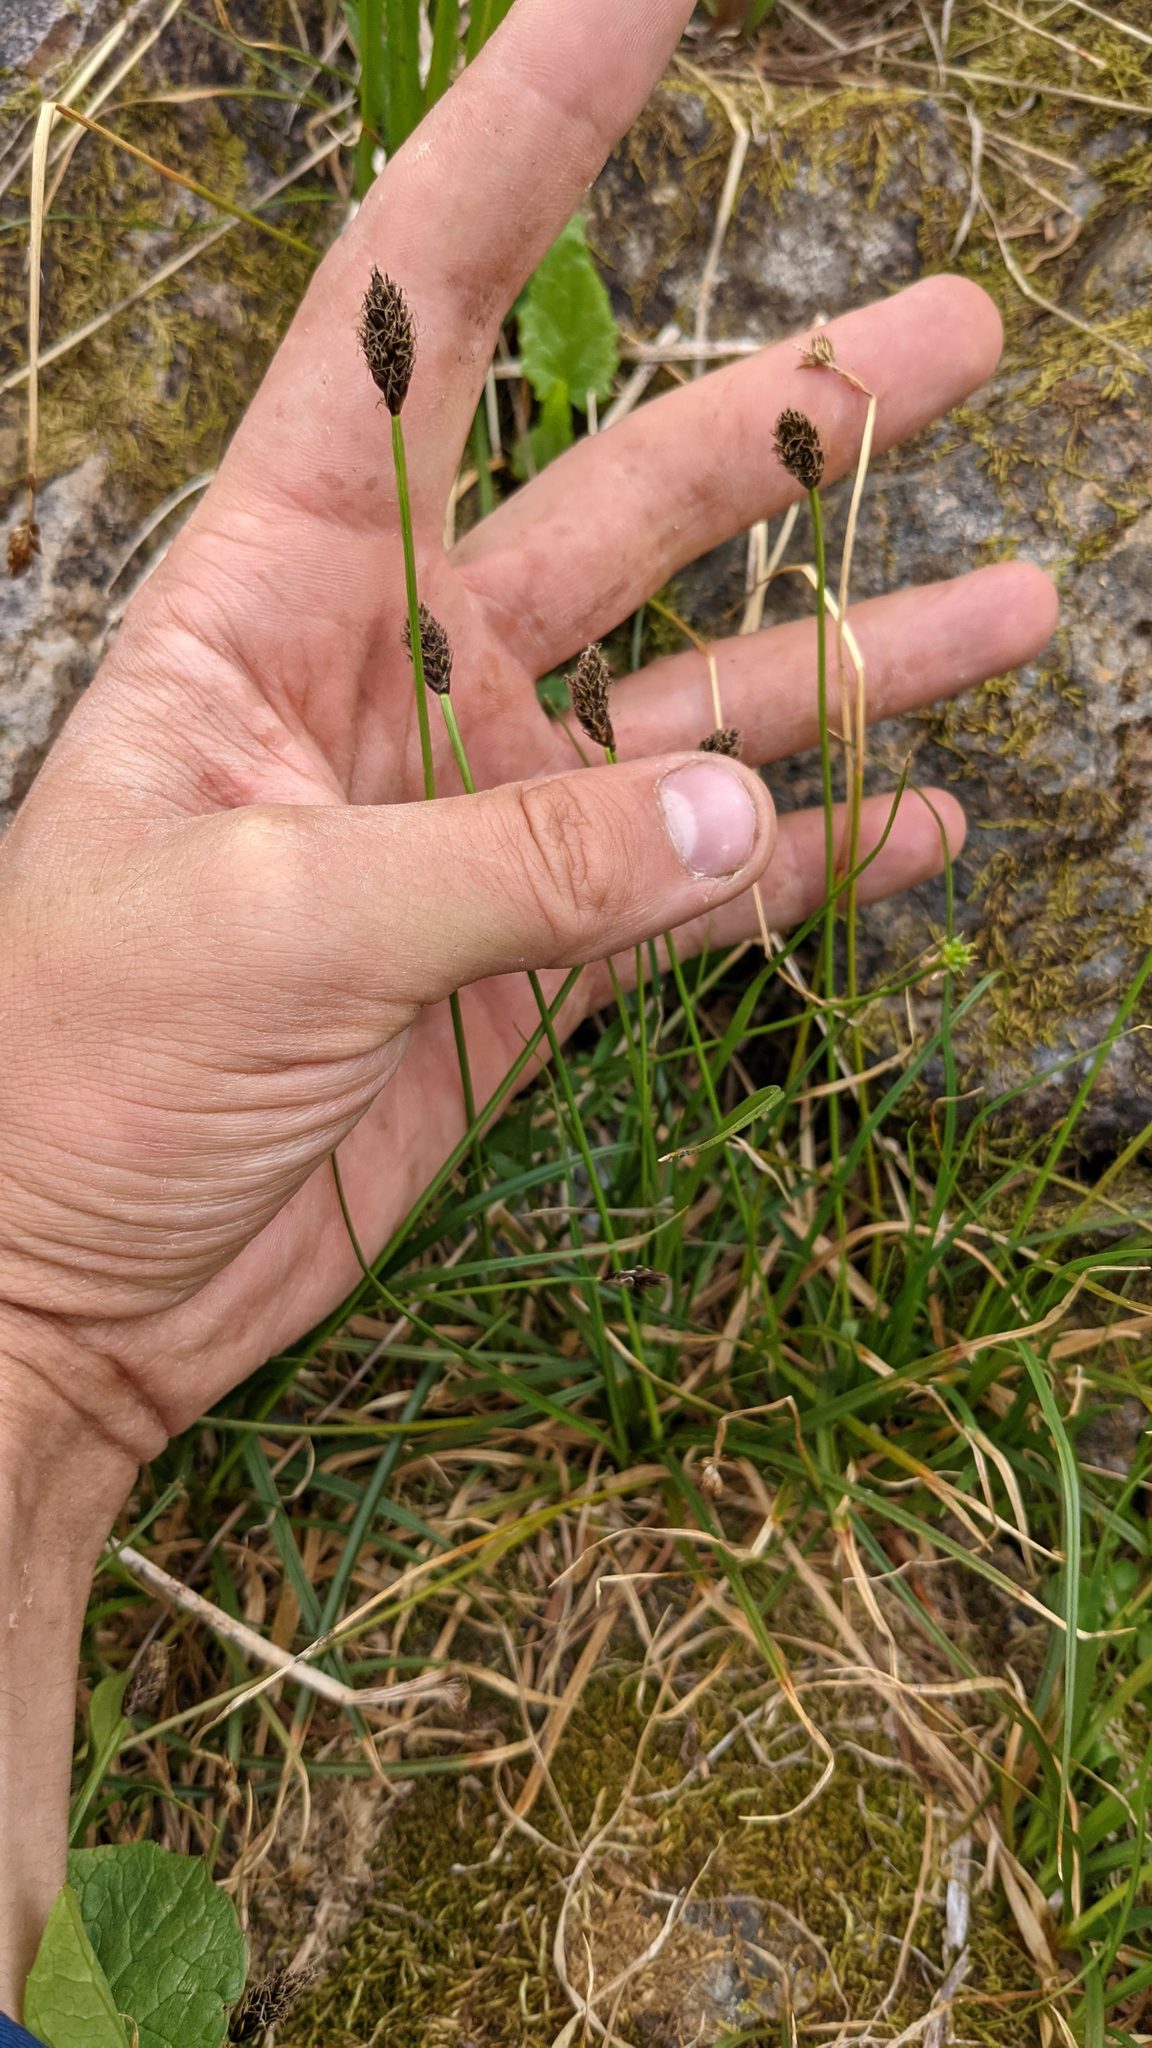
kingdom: Plantae
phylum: Tracheophyta
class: Liliopsida
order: Poales
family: Cyperaceae
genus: Carex
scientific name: Carex nigricans
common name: Black alpine sedge
